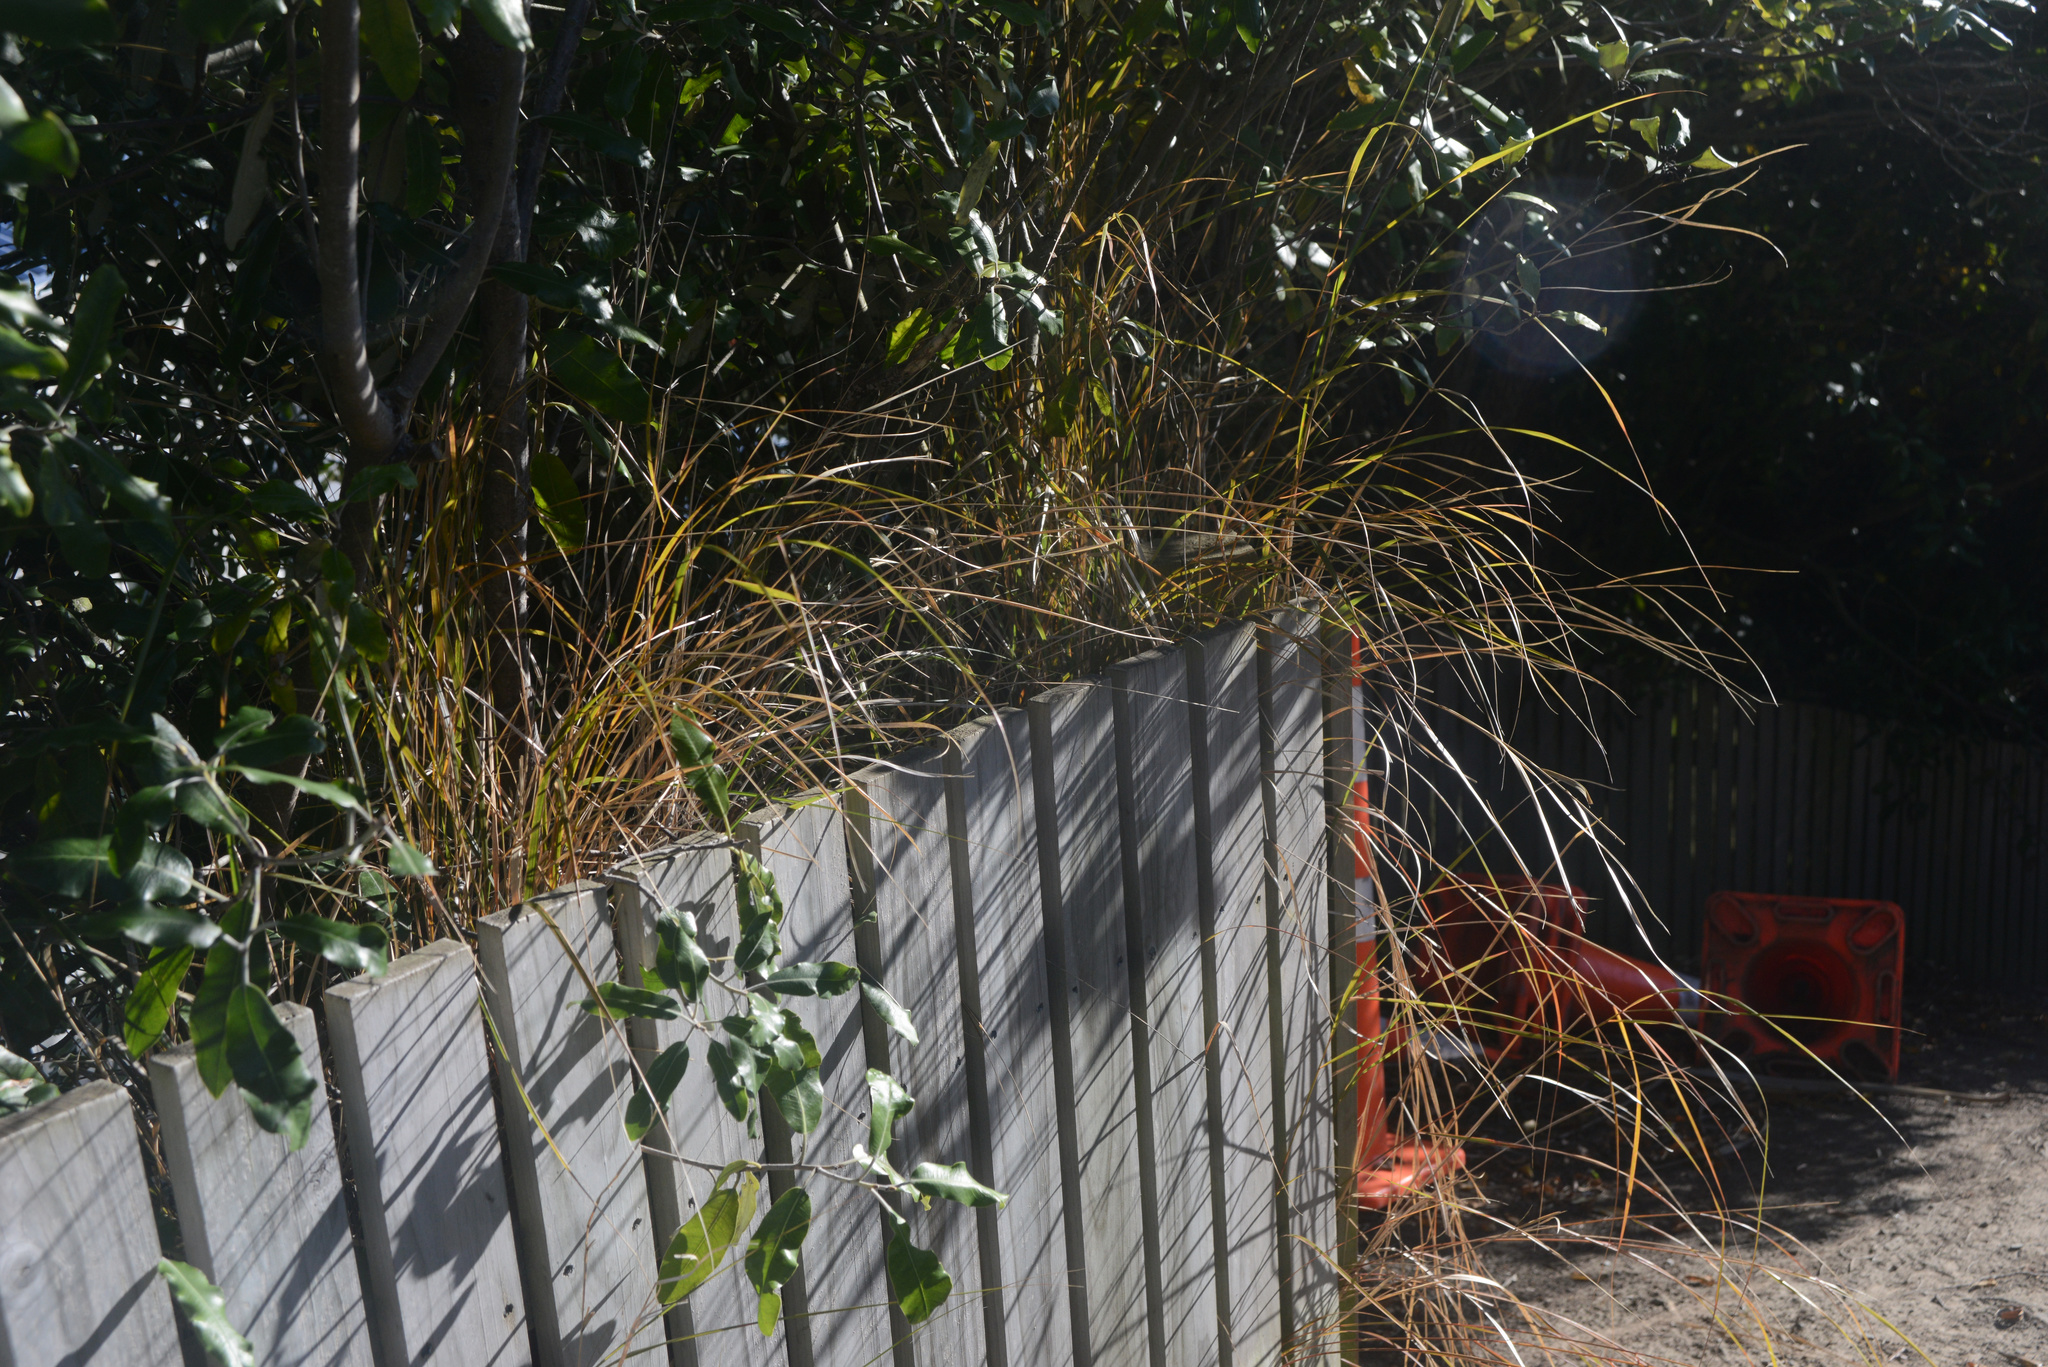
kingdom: Plantae
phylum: Tracheophyta
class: Liliopsida
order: Poales
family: Poaceae
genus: Anemanthele
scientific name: Anemanthele lessoniana
